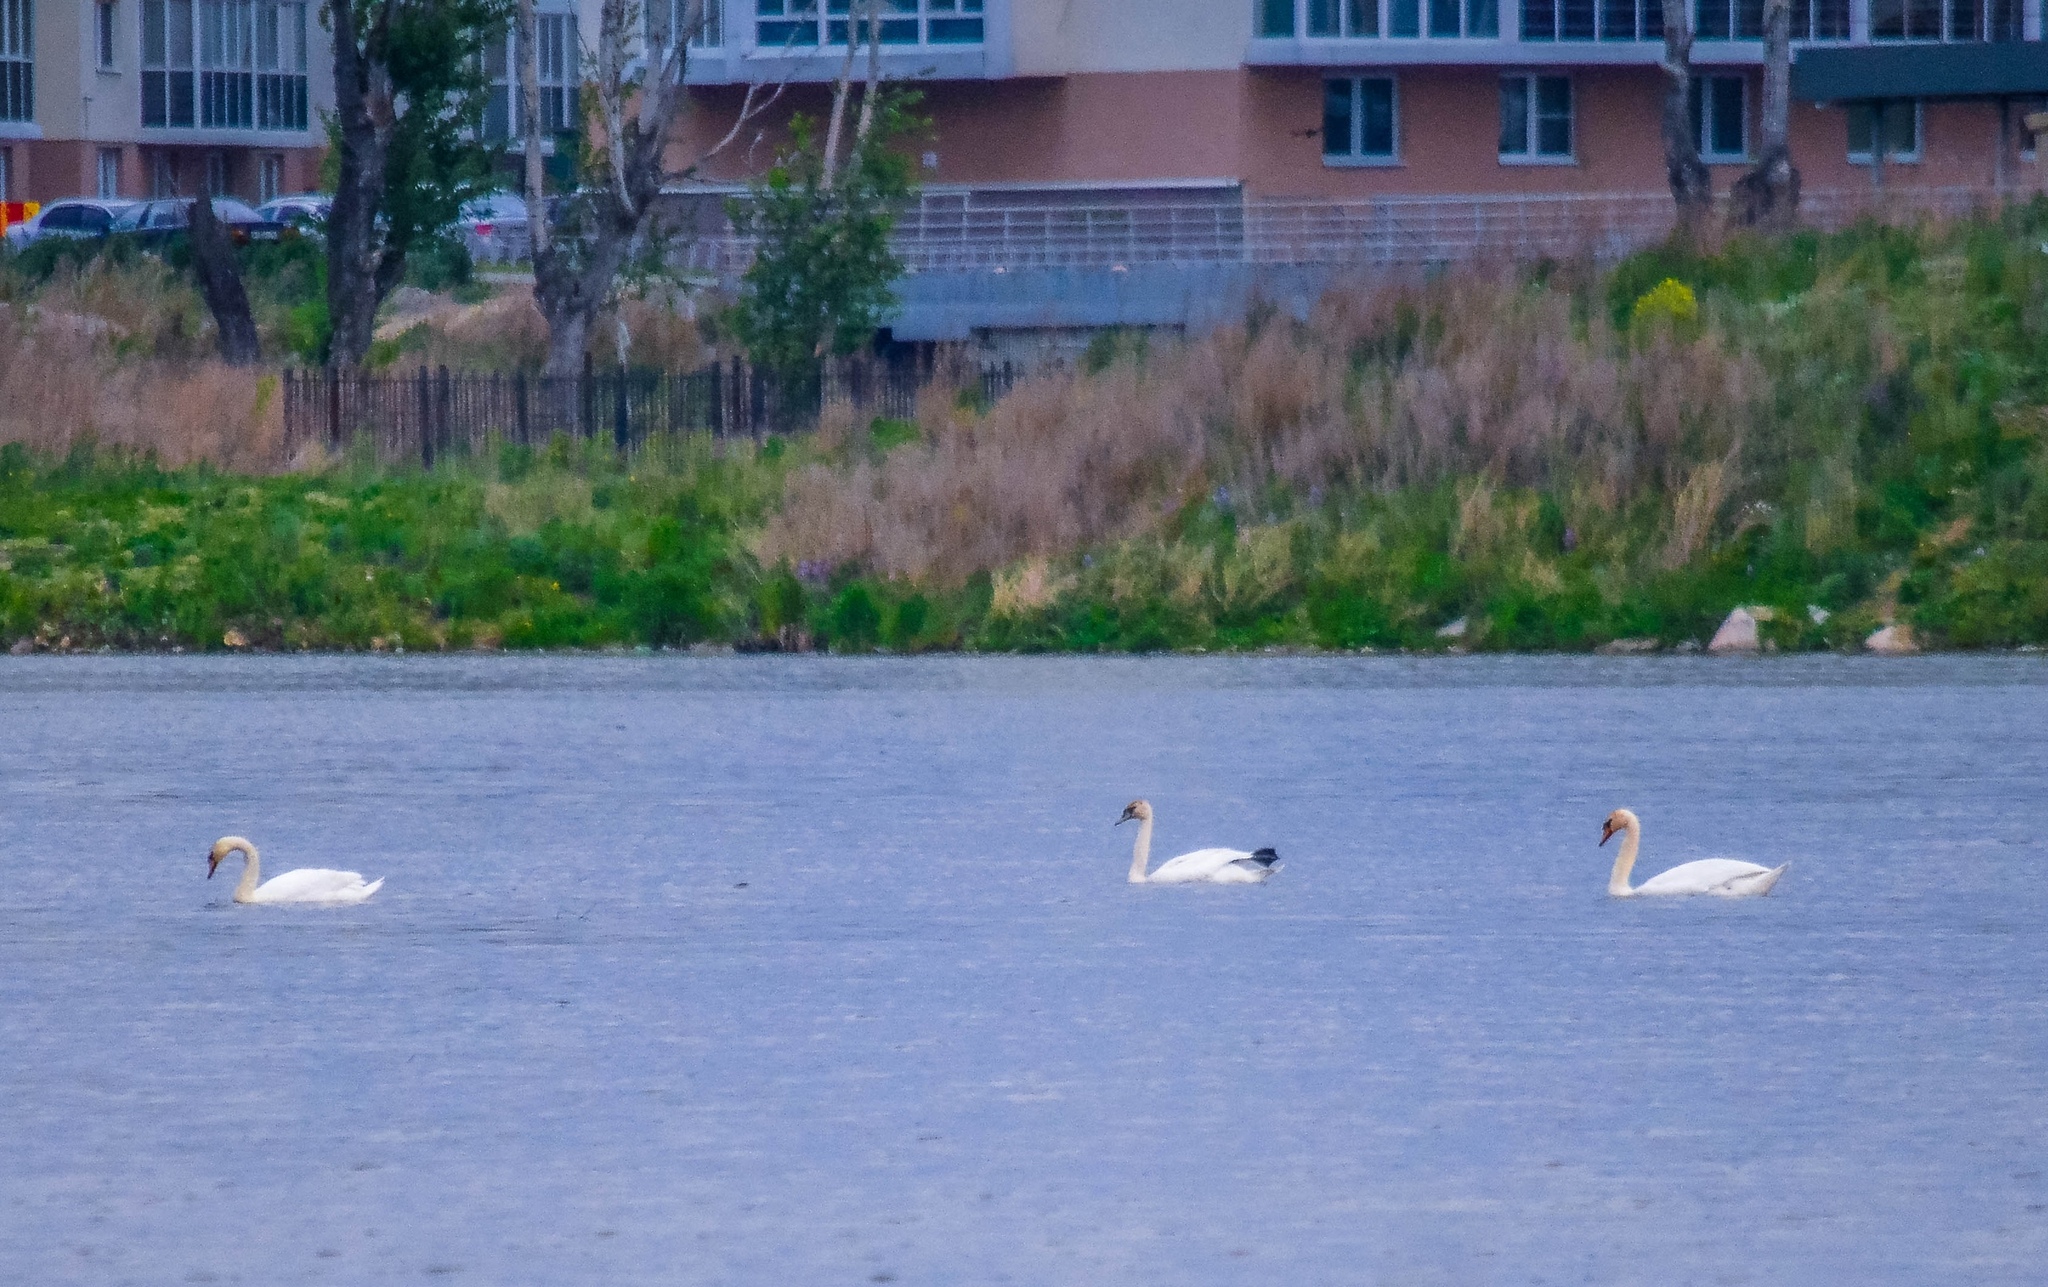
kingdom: Animalia
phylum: Chordata
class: Aves
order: Anseriformes
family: Anatidae
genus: Cygnus
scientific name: Cygnus olor
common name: Mute swan
